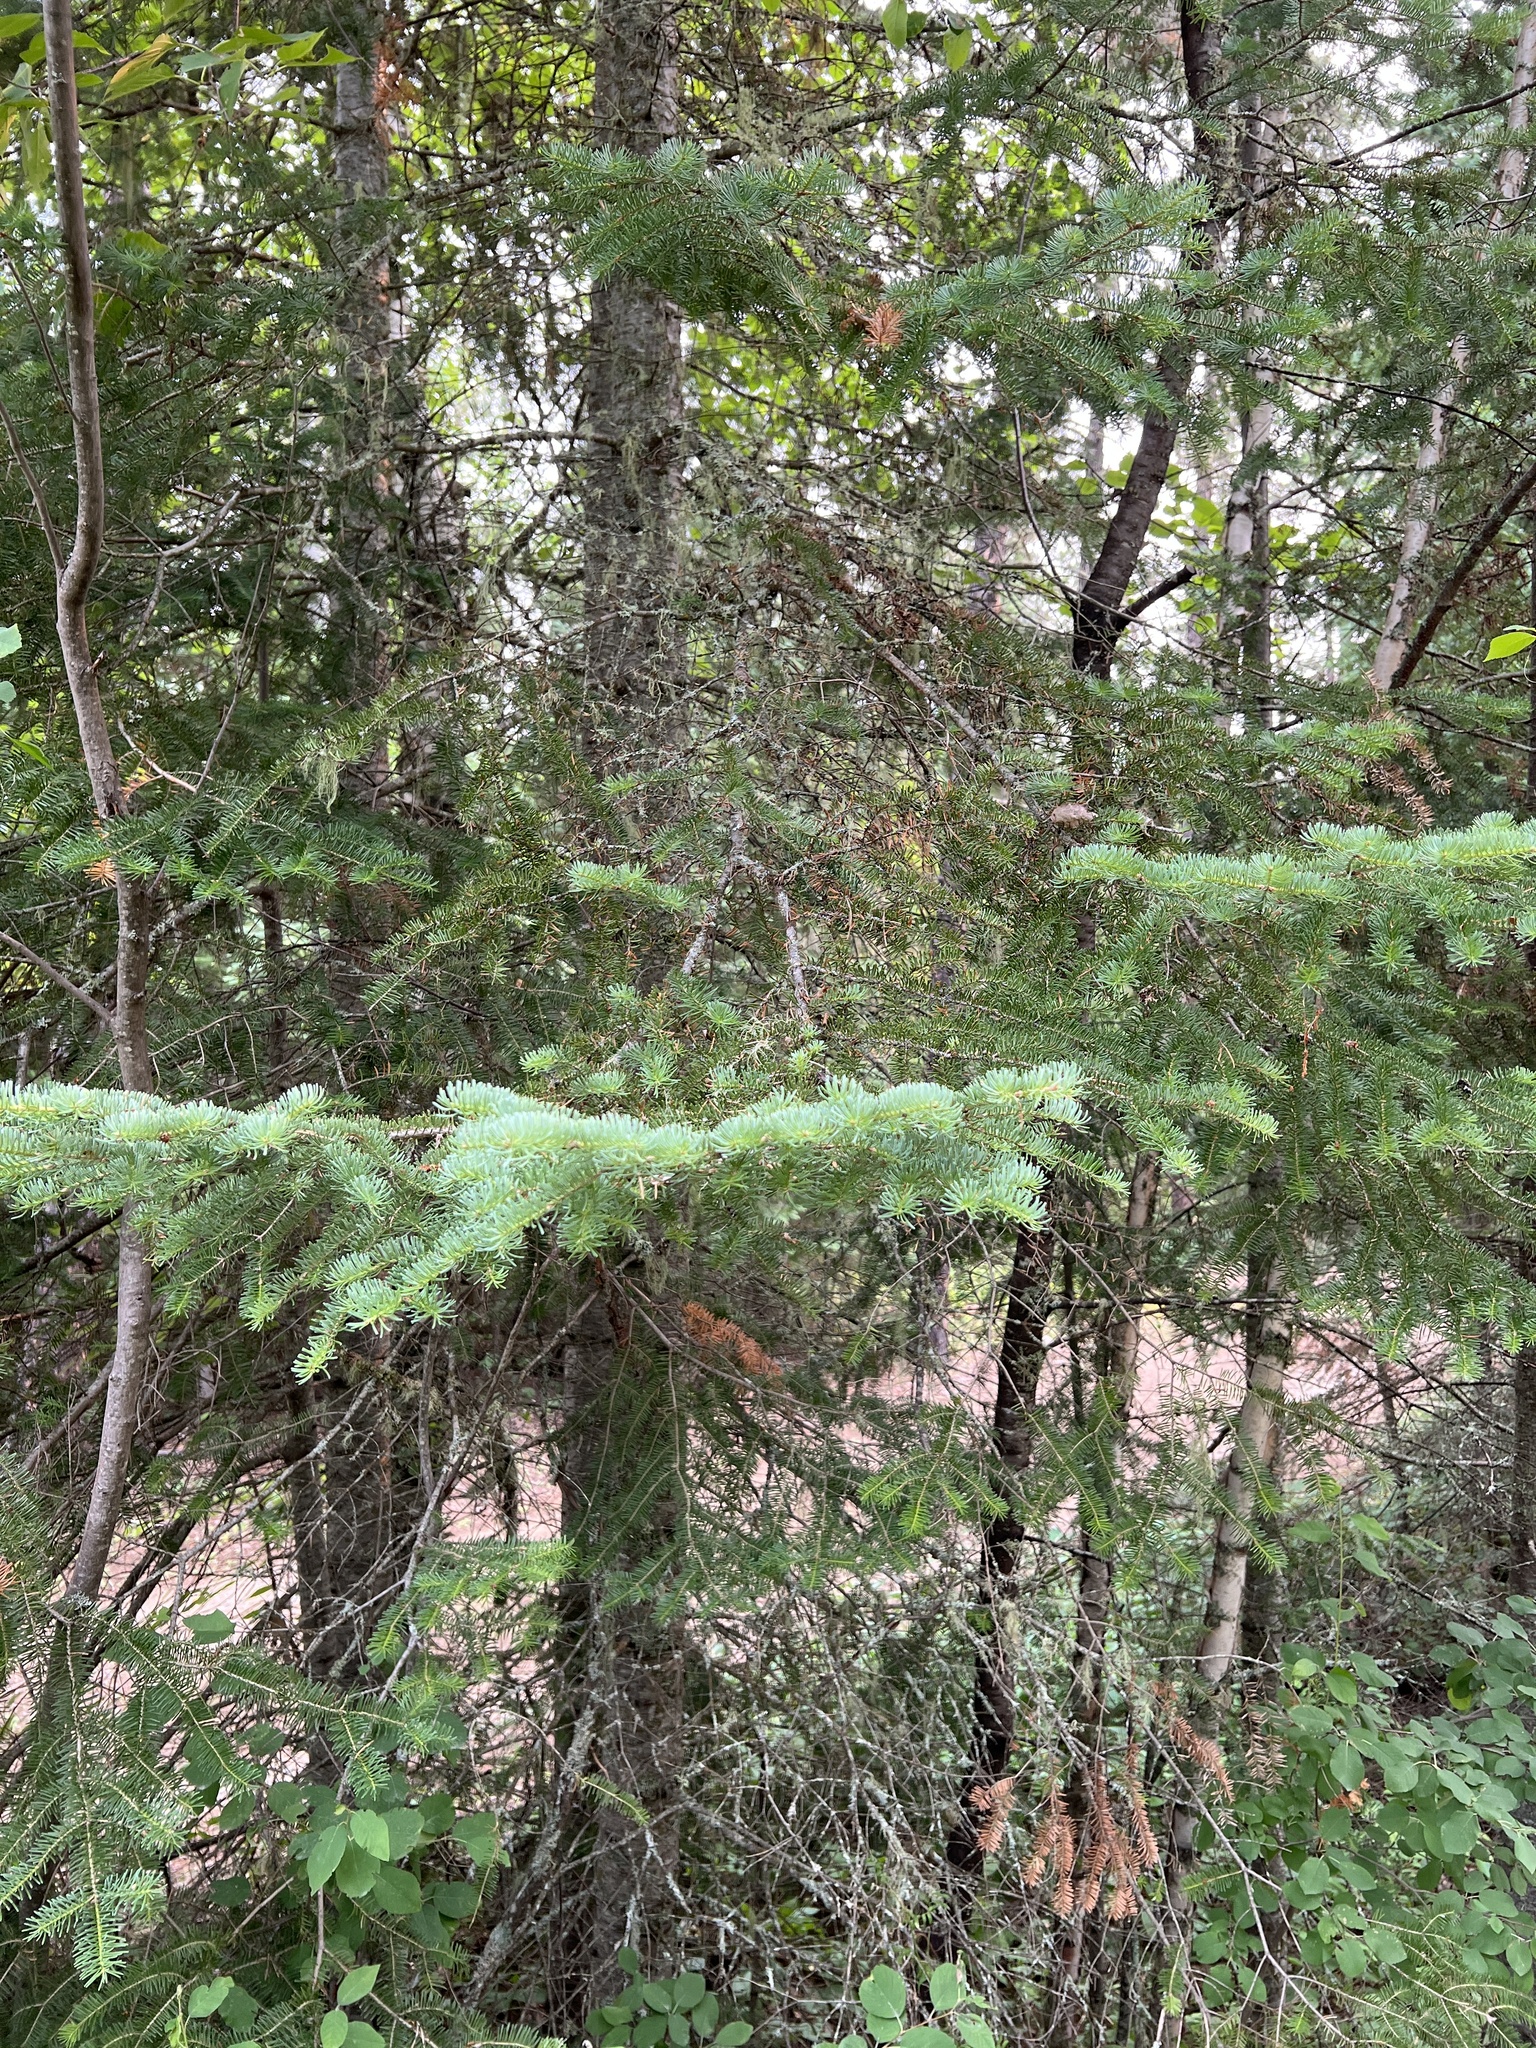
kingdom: Plantae
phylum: Tracheophyta
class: Pinopsida
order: Pinales
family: Pinaceae
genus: Abies
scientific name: Abies balsamea
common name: Balsam fir
